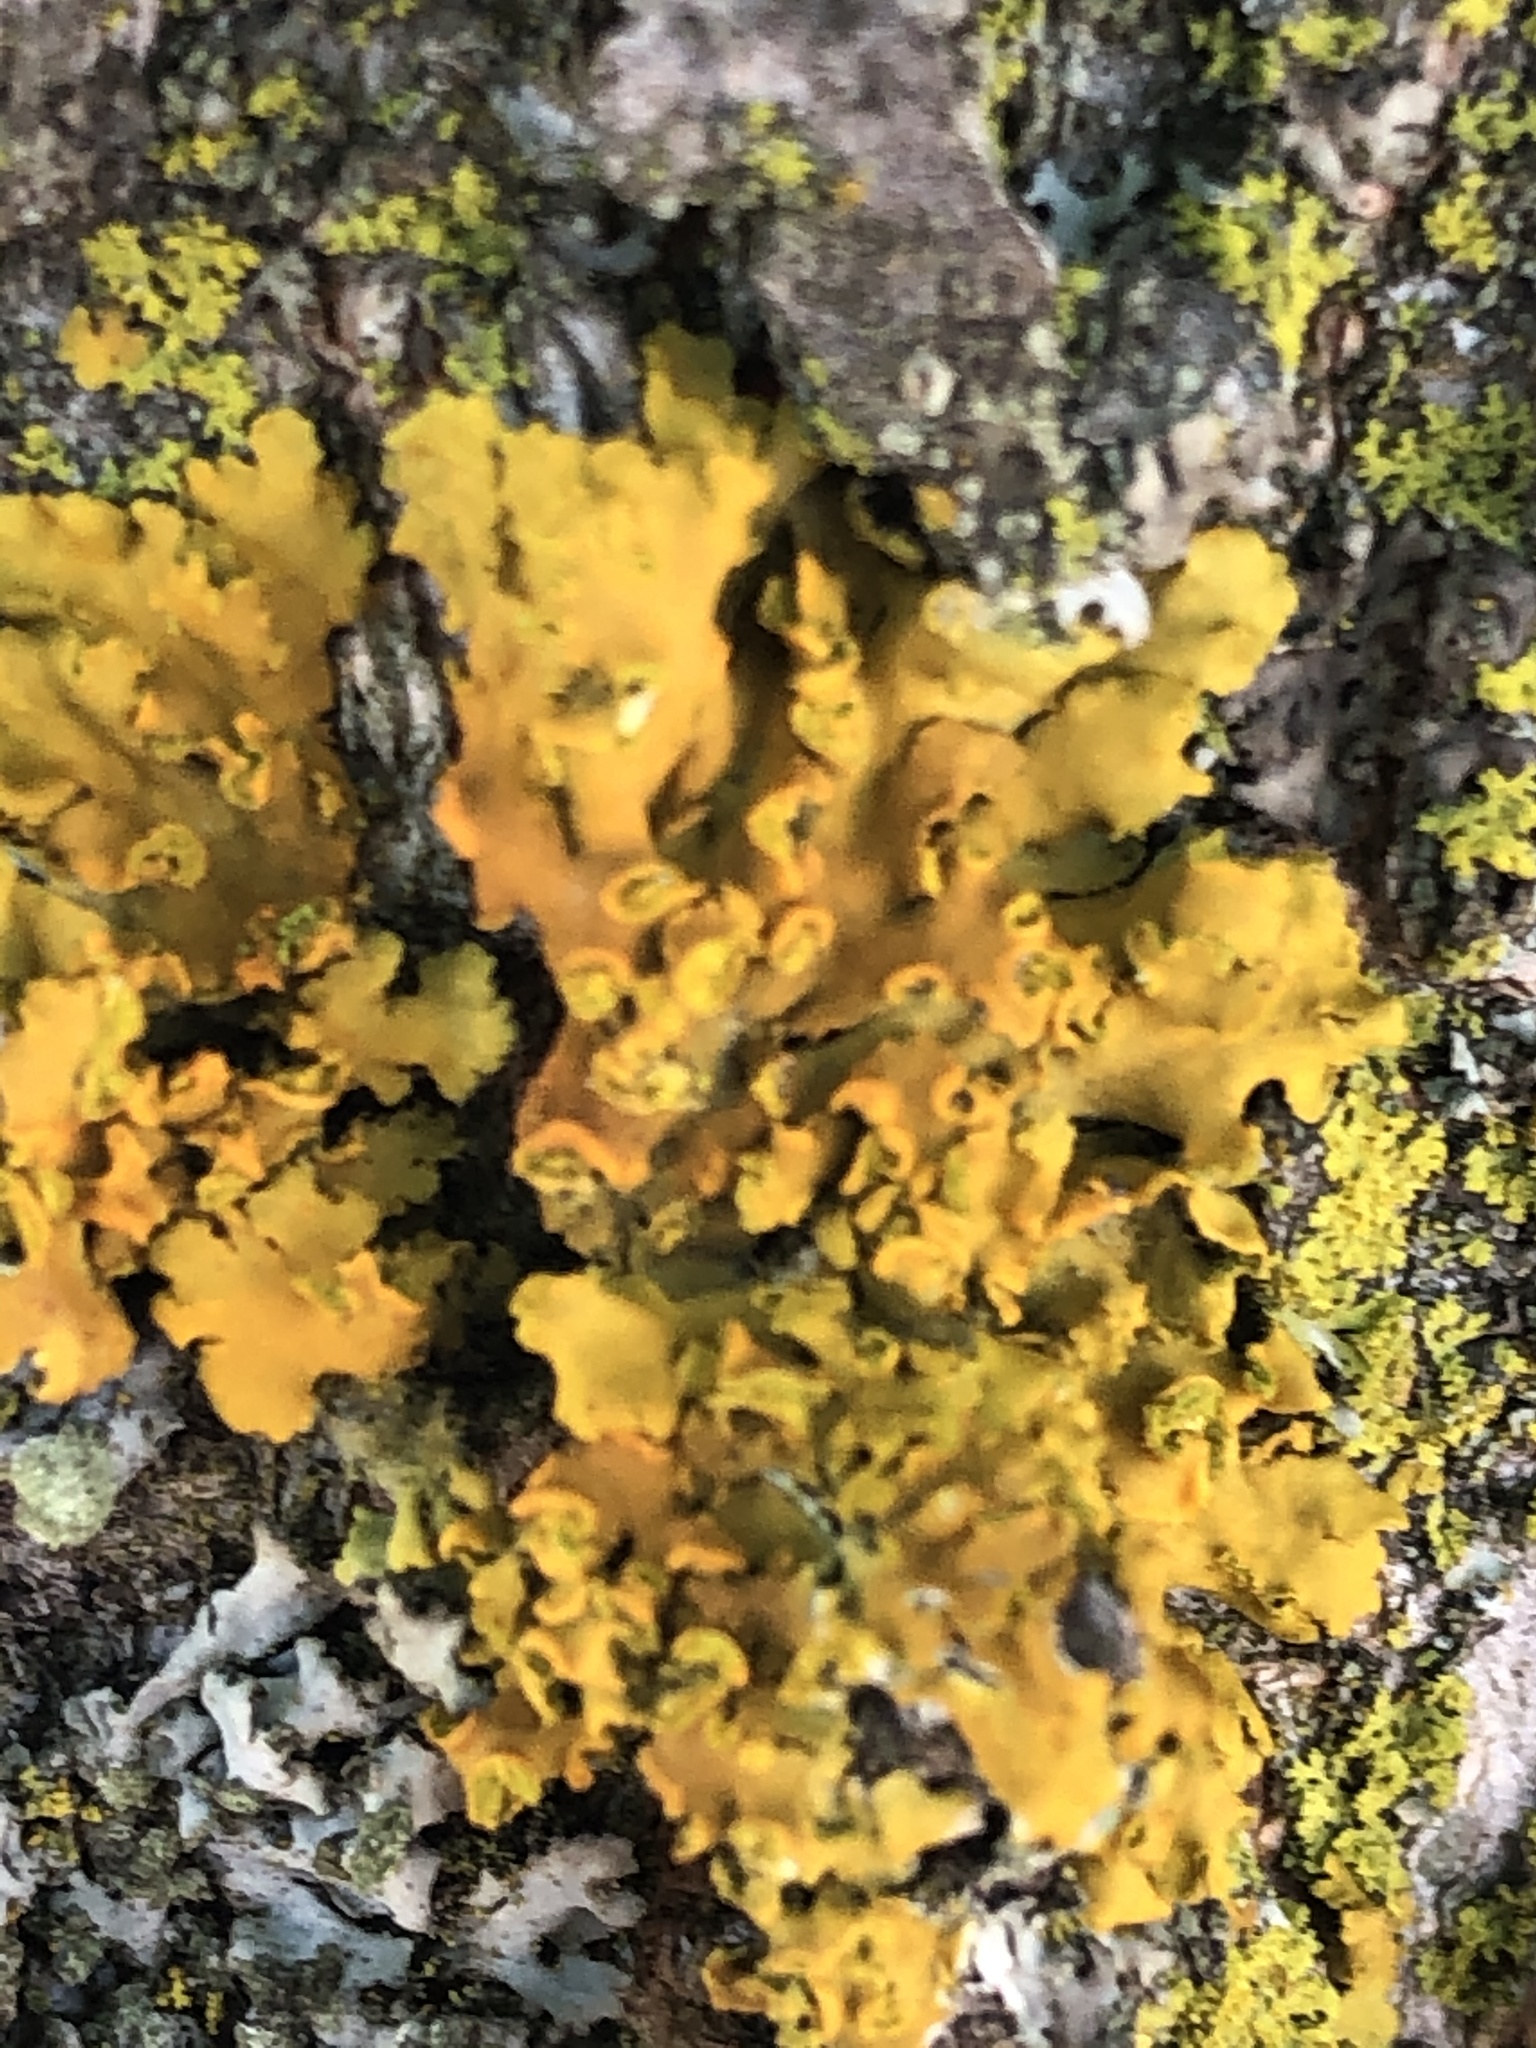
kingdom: Fungi
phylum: Ascomycota
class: Lecanoromycetes
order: Teloschistales
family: Teloschistaceae
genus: Oxneria
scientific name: Oxneria fallax
